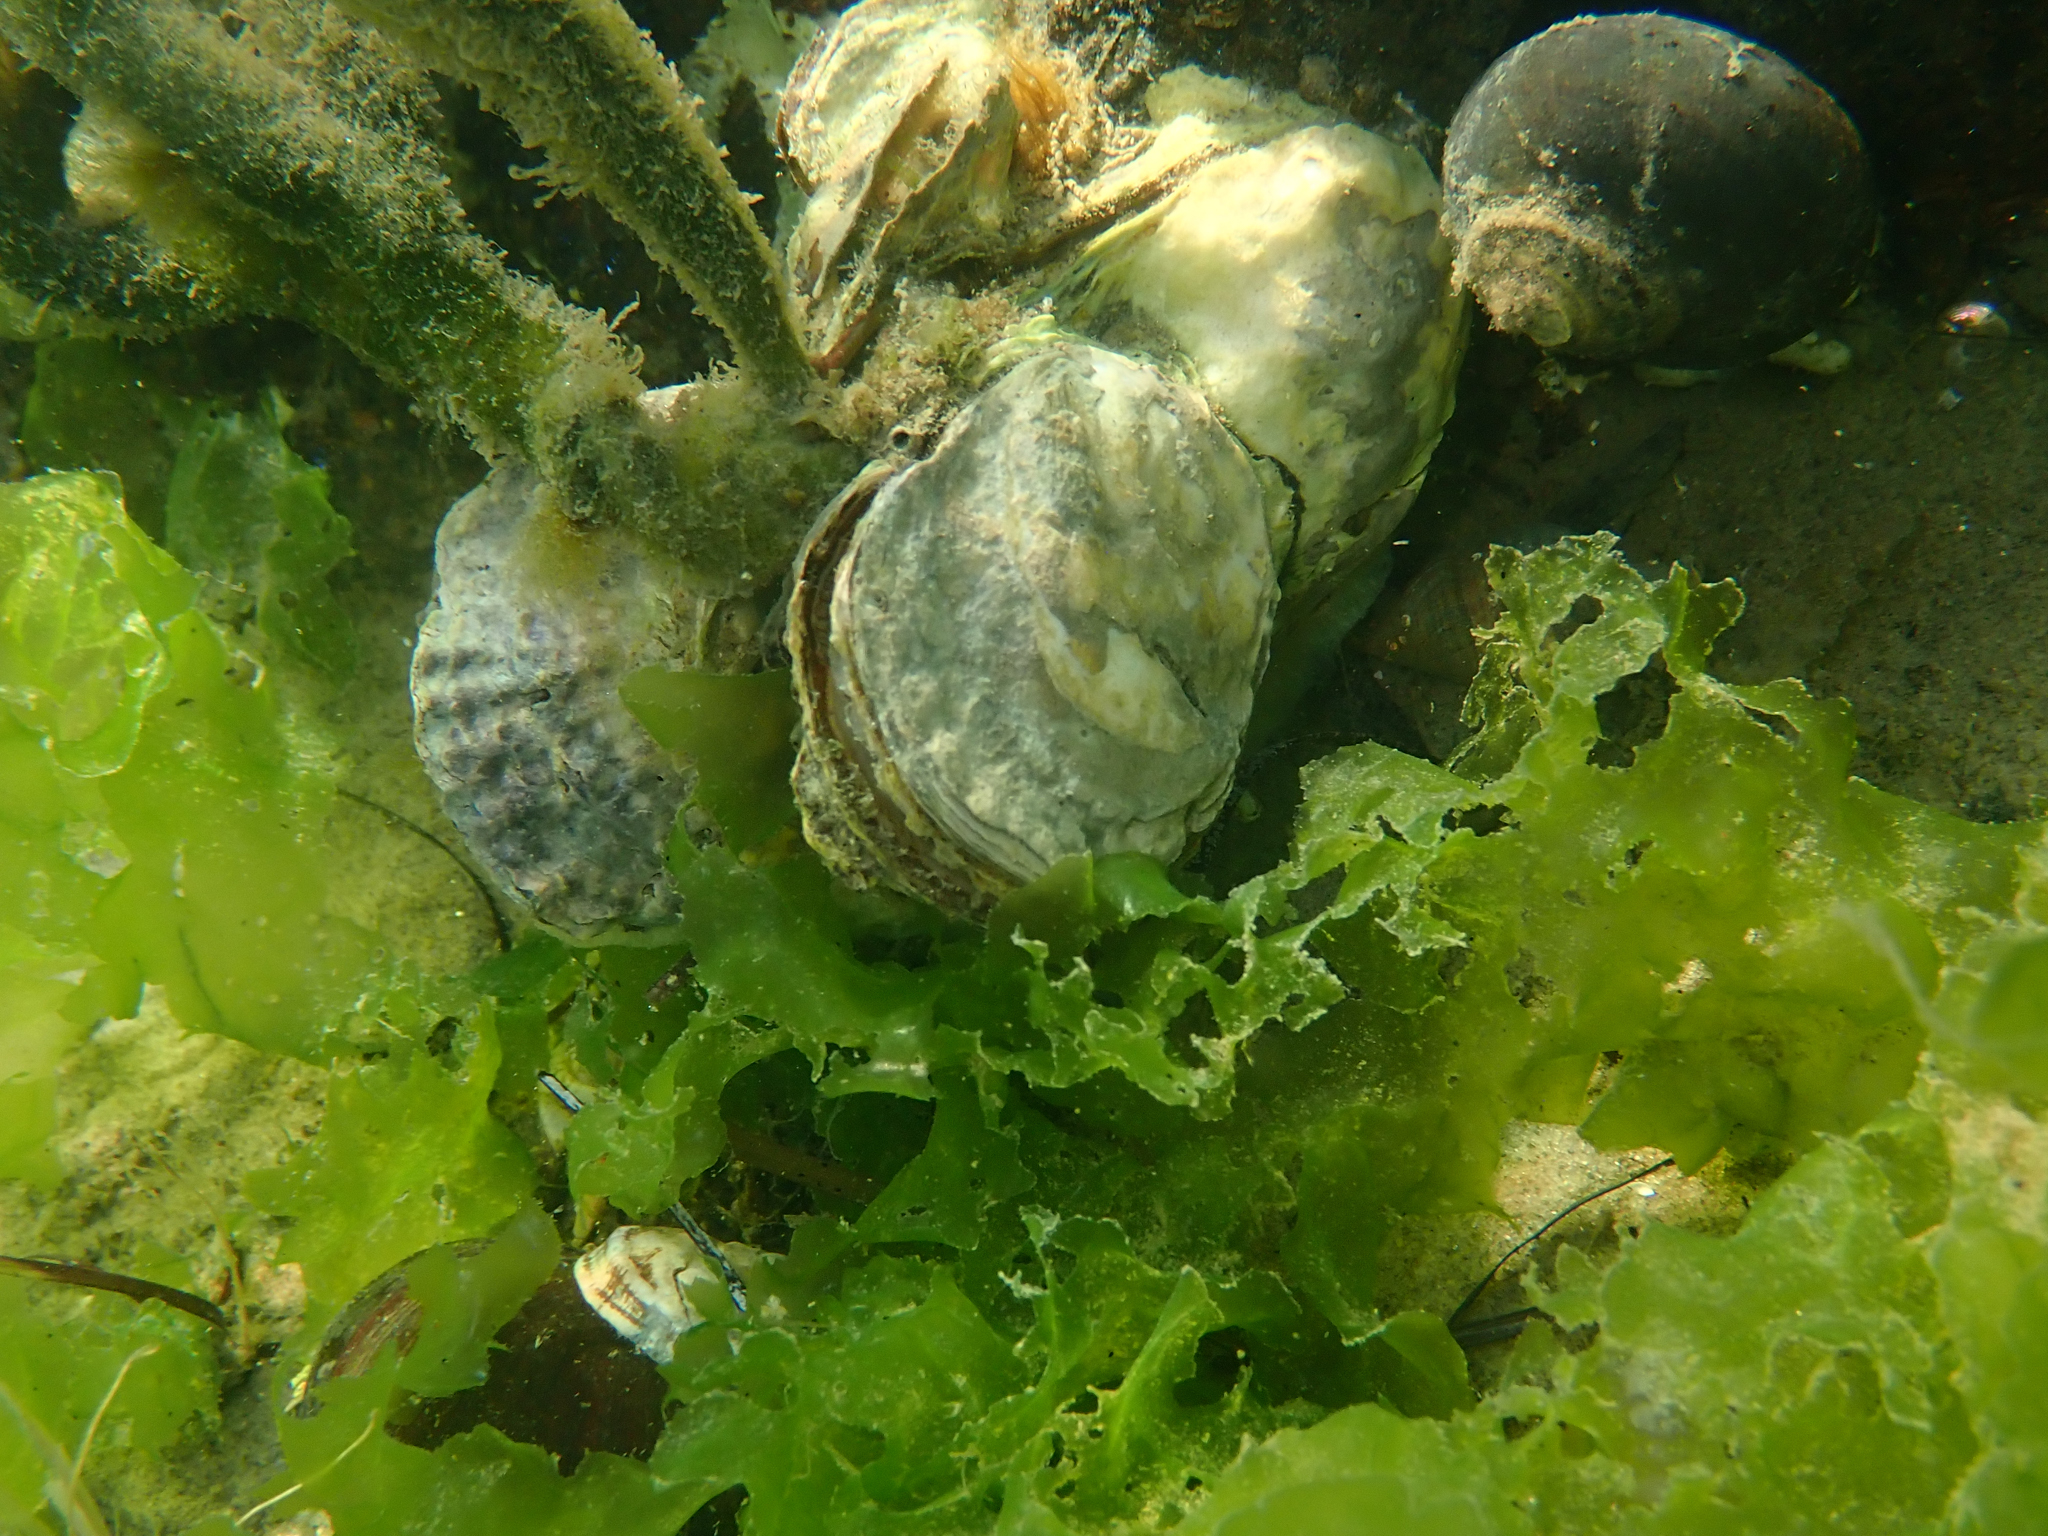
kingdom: Animalia
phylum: Mollusca
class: Bivalvia
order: Ostreida
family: Ostreidae
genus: Ostrea
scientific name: Ostrea chilensis
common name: Chilean oyster
